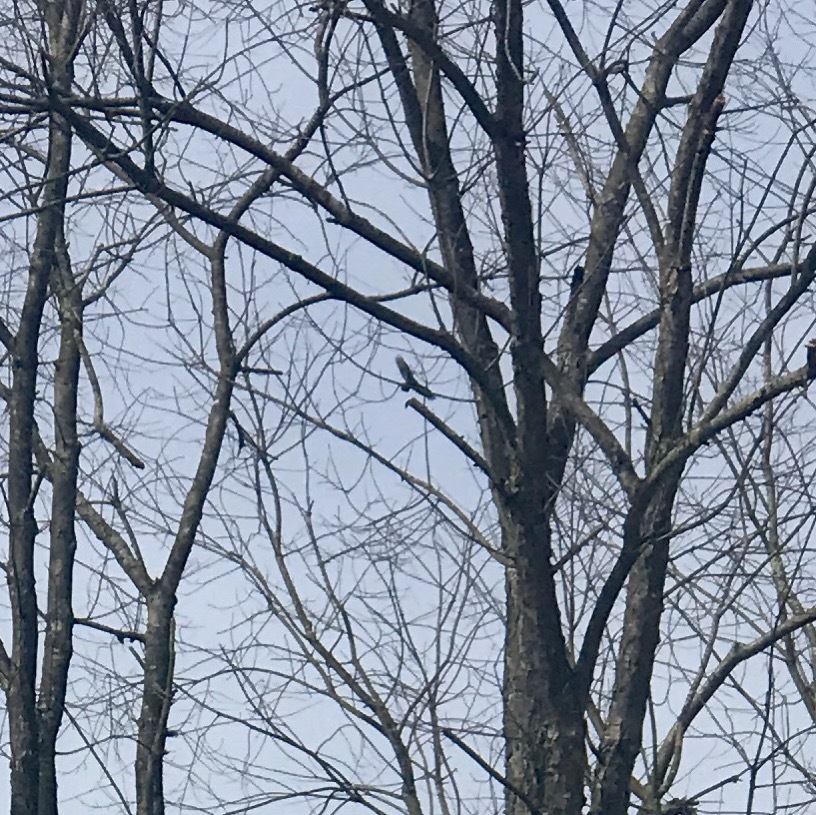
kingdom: Animalia
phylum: Chordata
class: Aves
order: Accipitriformes
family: Cathartidae
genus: Cathartes
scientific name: Cathartes aura
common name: Turkey vulture
